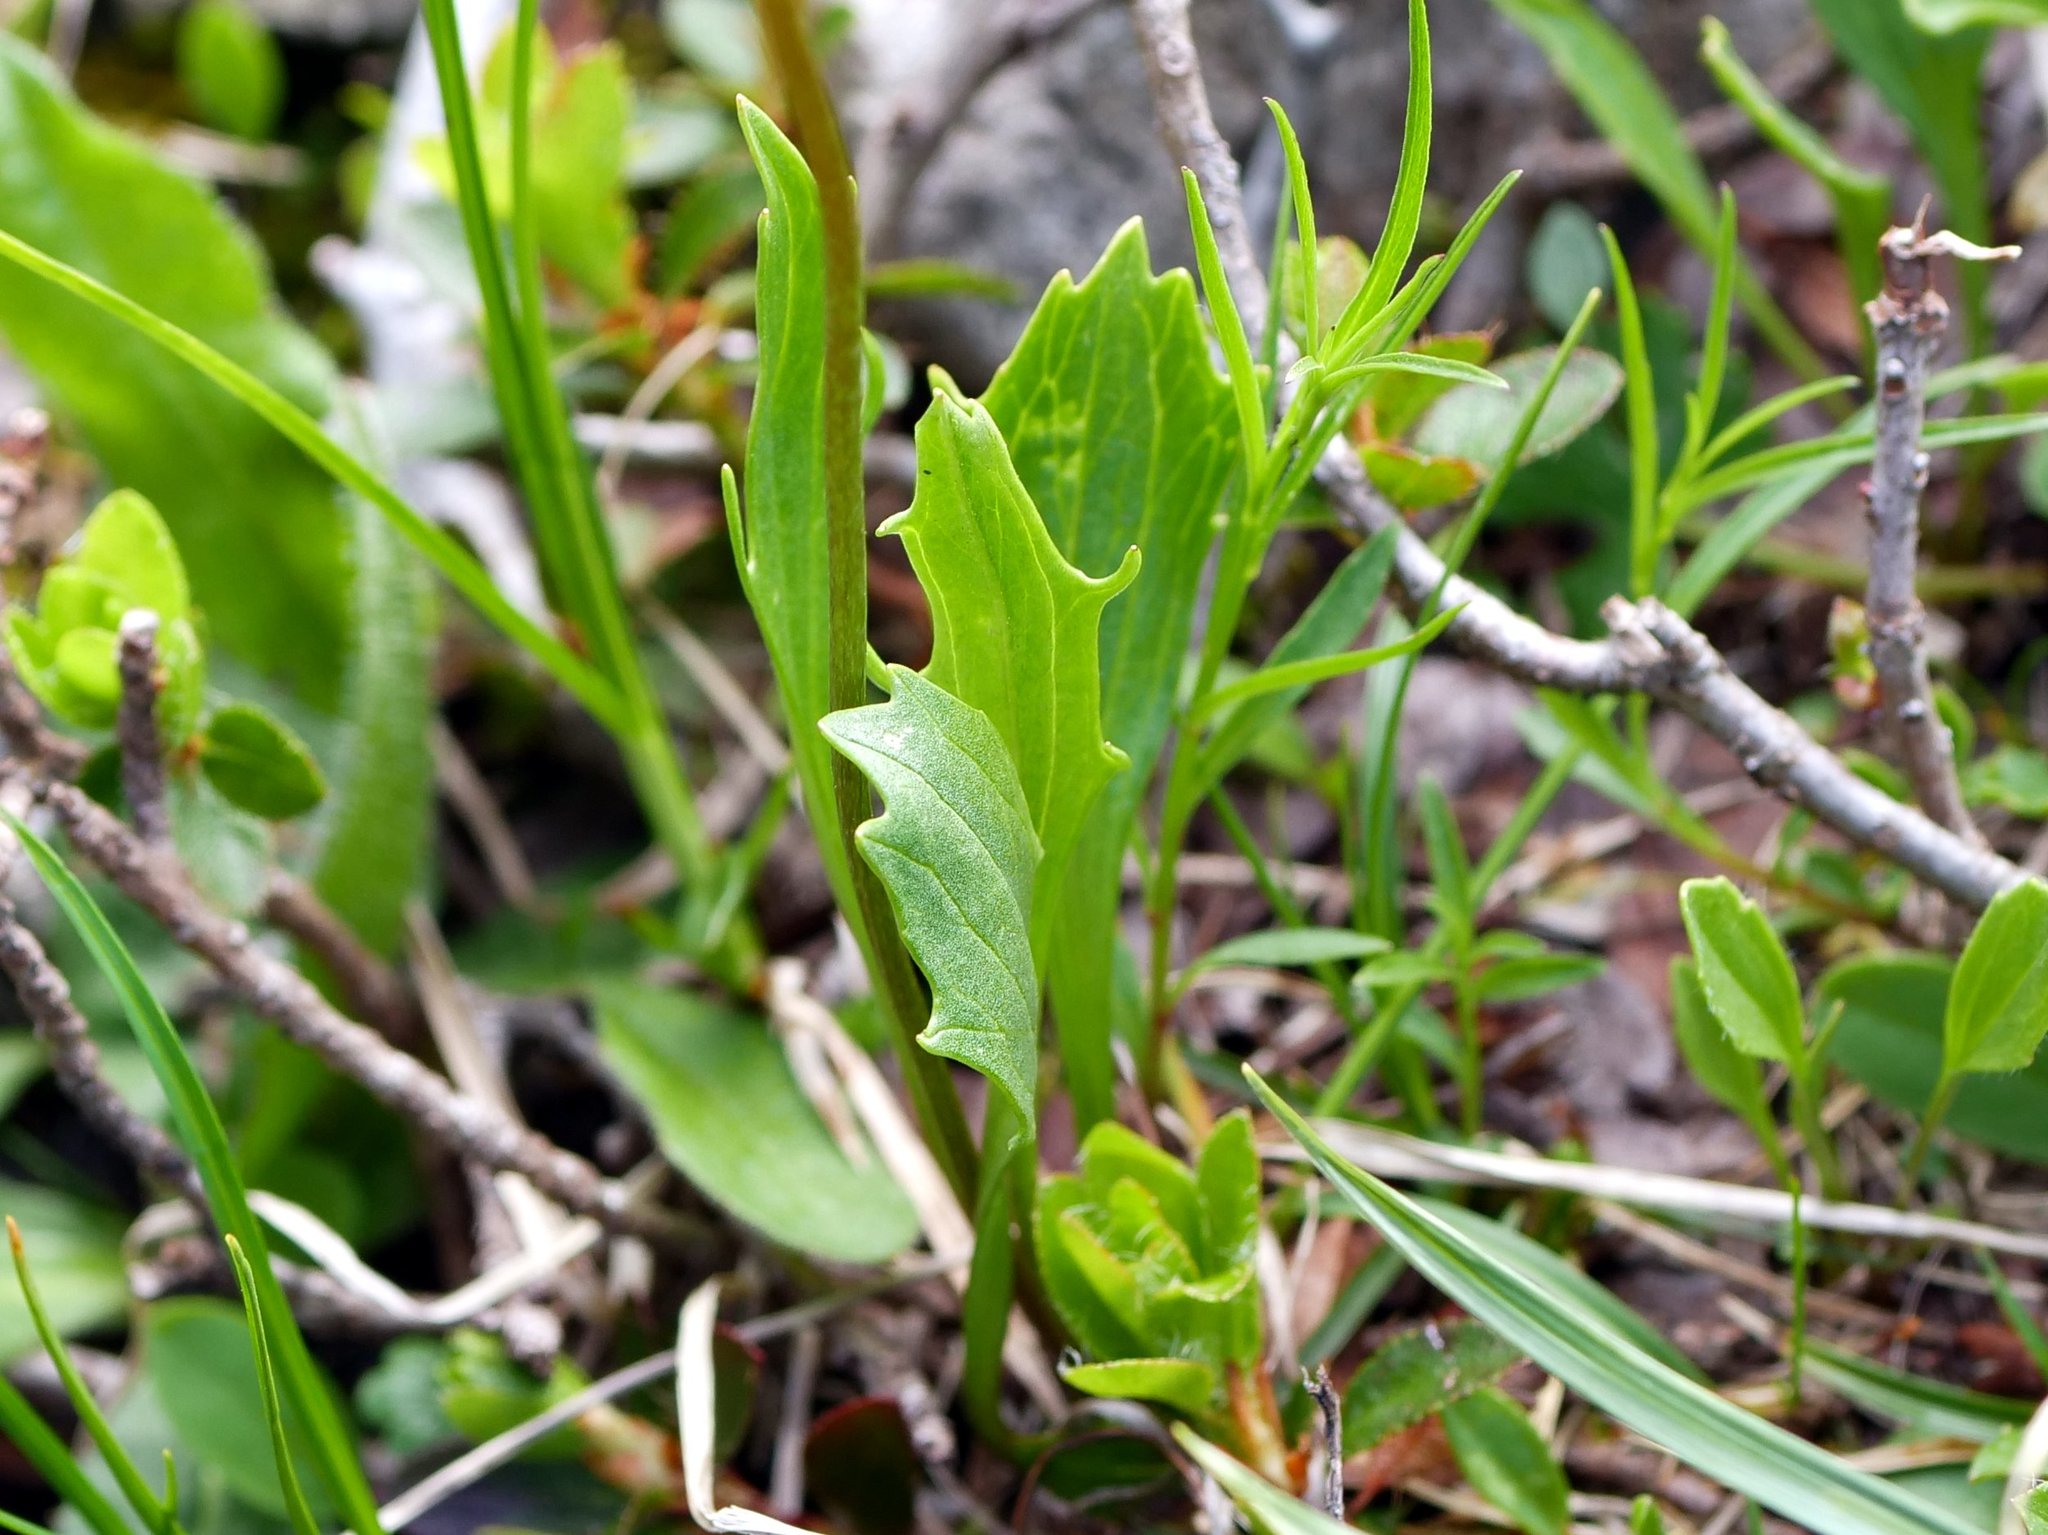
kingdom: Plantae
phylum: Tracheophyta
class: Magnoliopsida
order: Dipsacales
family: Caprifoliaceae
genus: Valeriana
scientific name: Valeriana saxatilis
